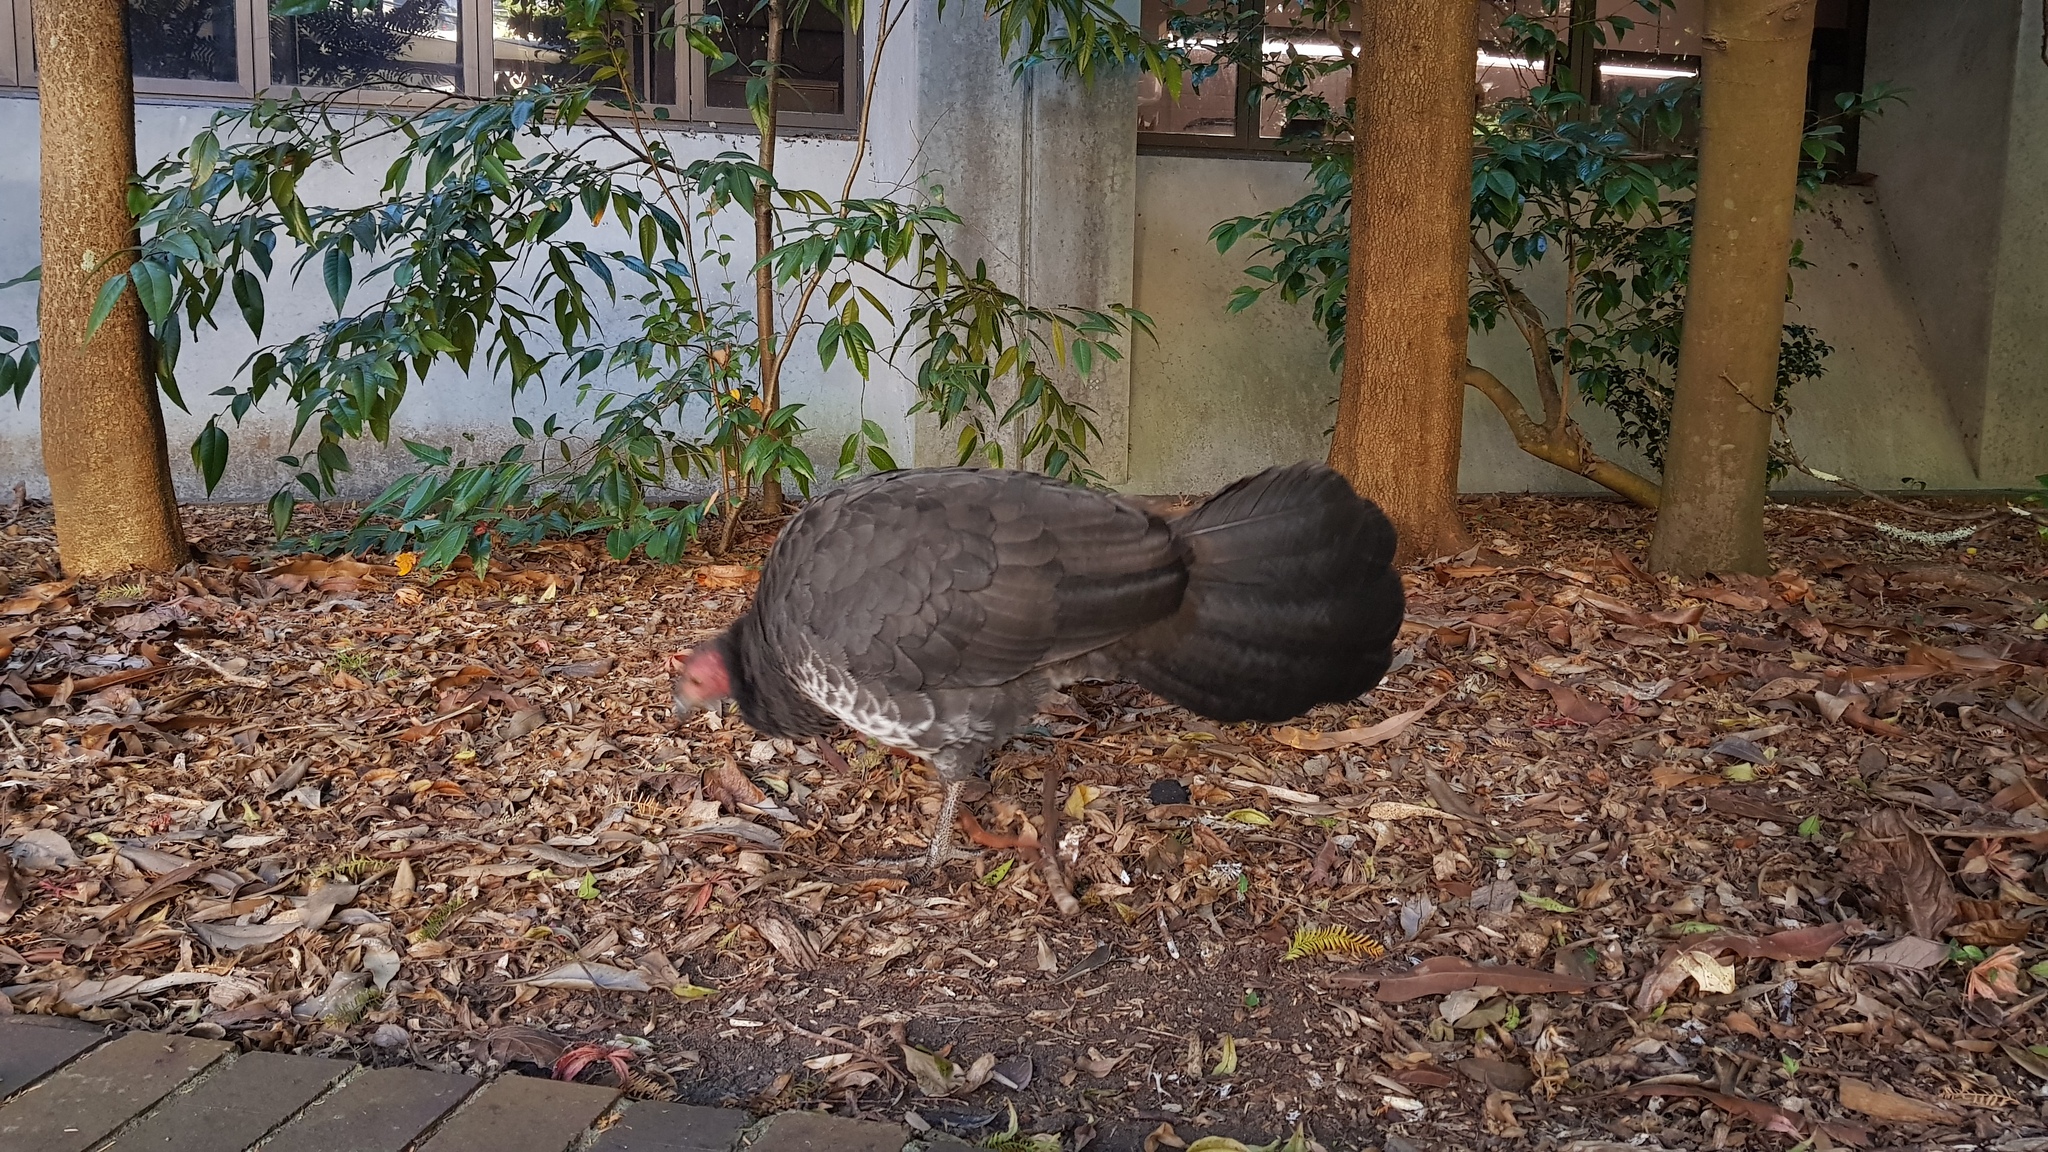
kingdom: Animalia
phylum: Chordata
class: Aves
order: Galliformes
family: Megapodiidae
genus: Alectura
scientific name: Alectura lathami
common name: Australian brushturkey
